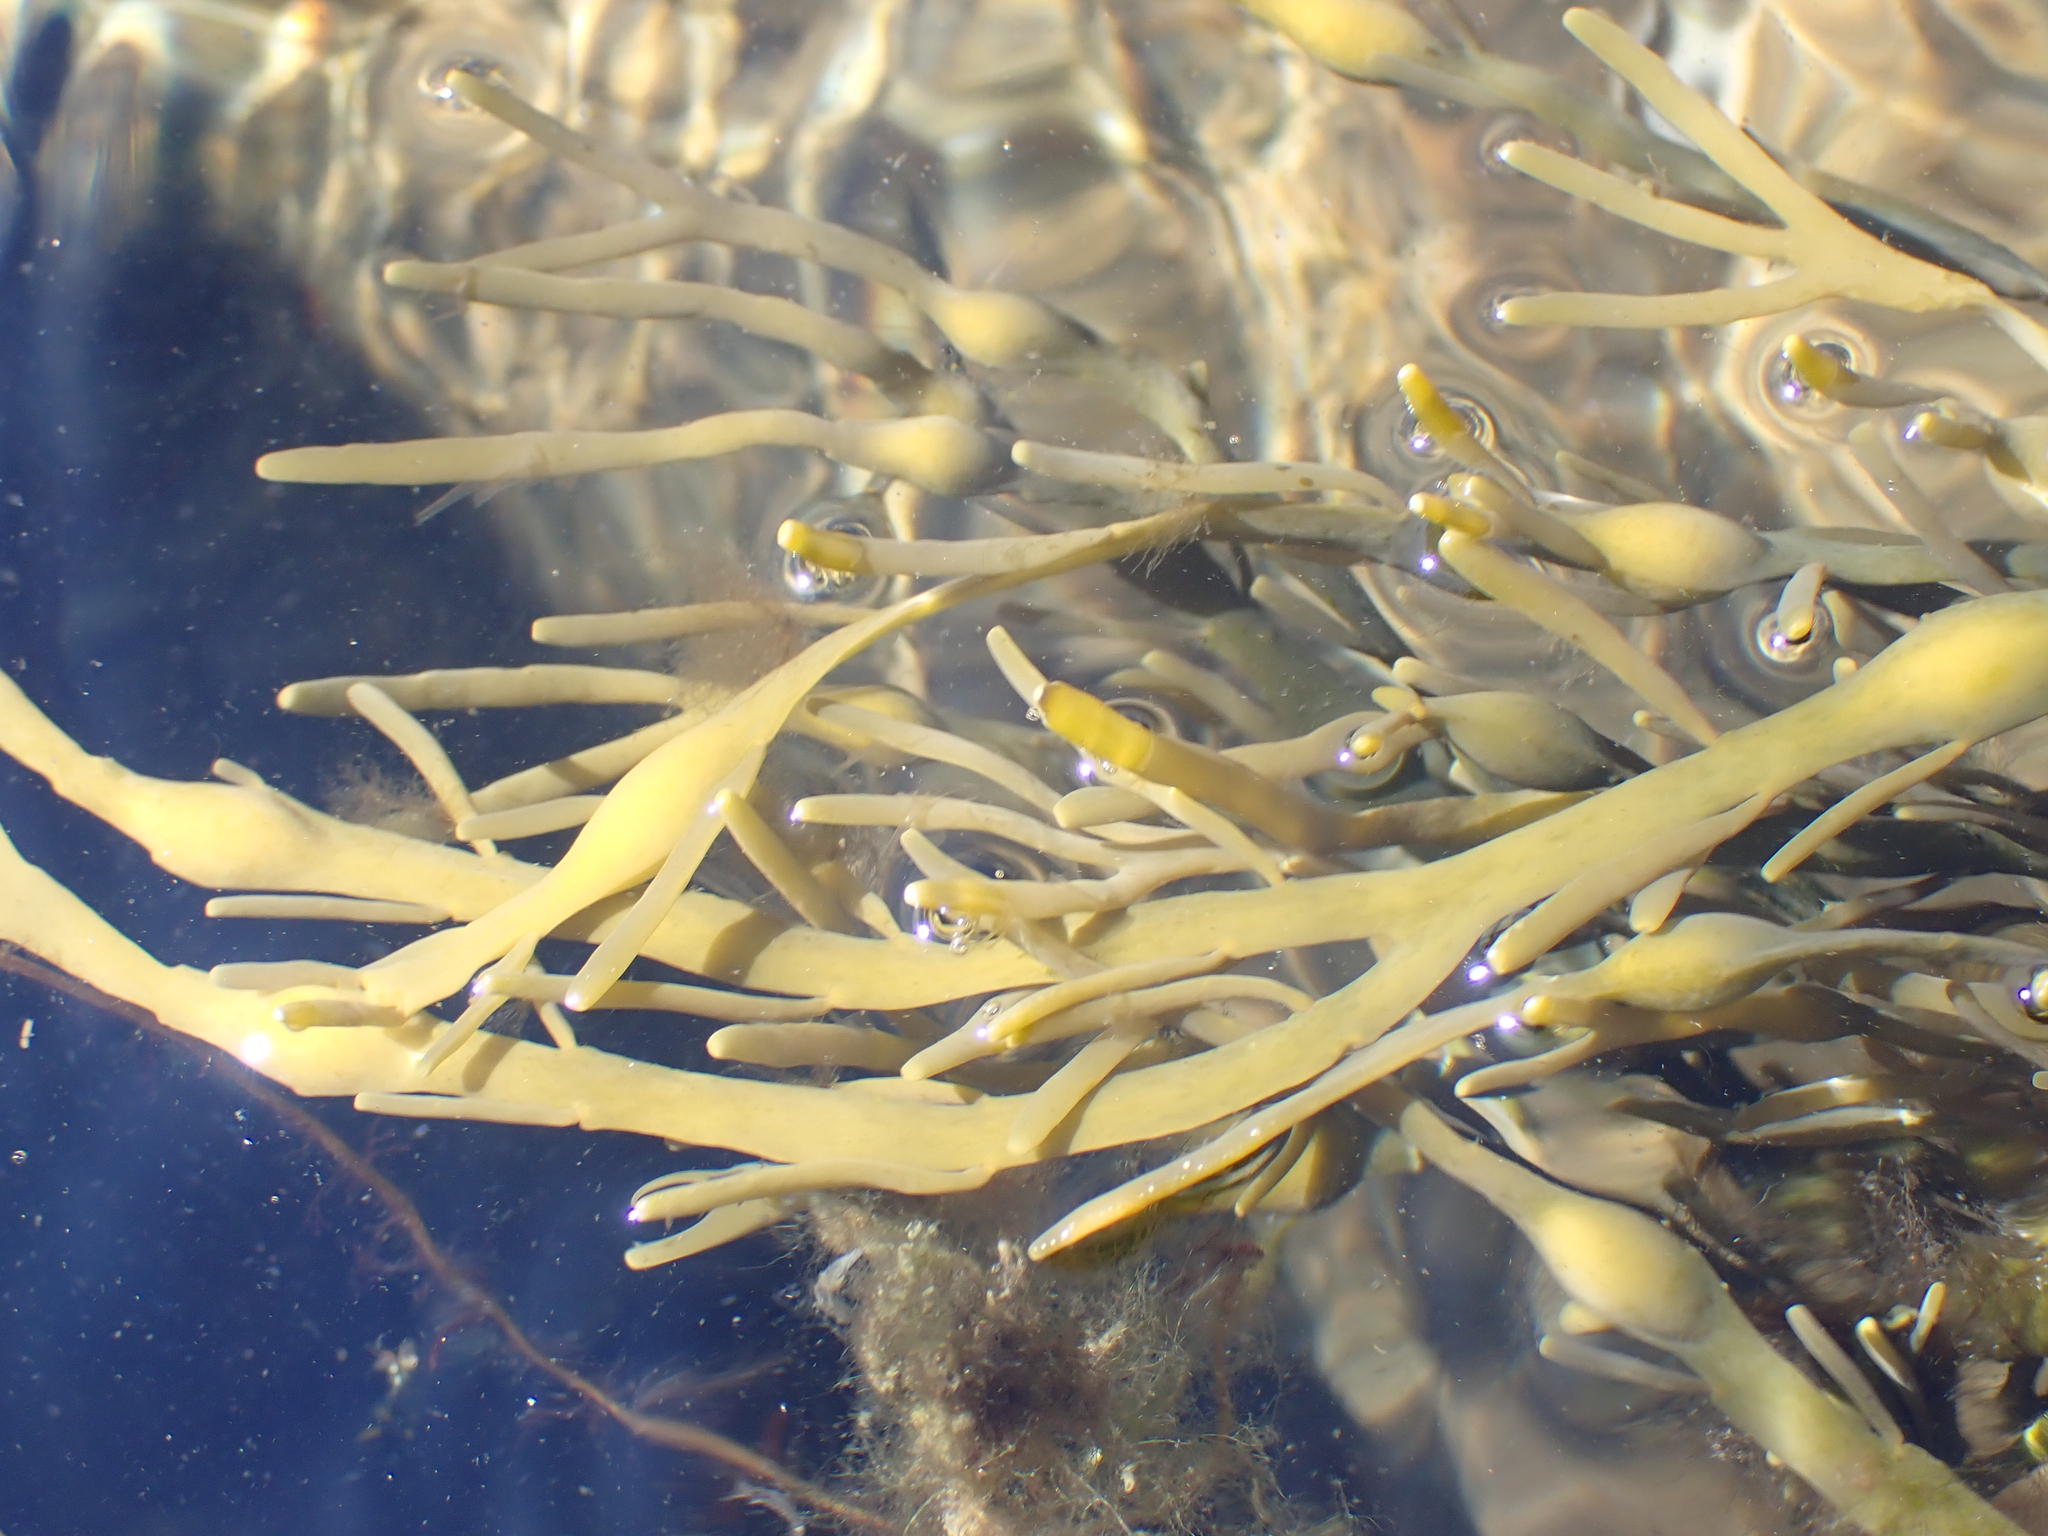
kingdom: Chromista
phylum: Ochrophyta
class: Phaeophyceae
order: Fucales
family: Fucaceae
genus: Ascophyllum
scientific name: Ascophyllum nodosum
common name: Knotted wrack
